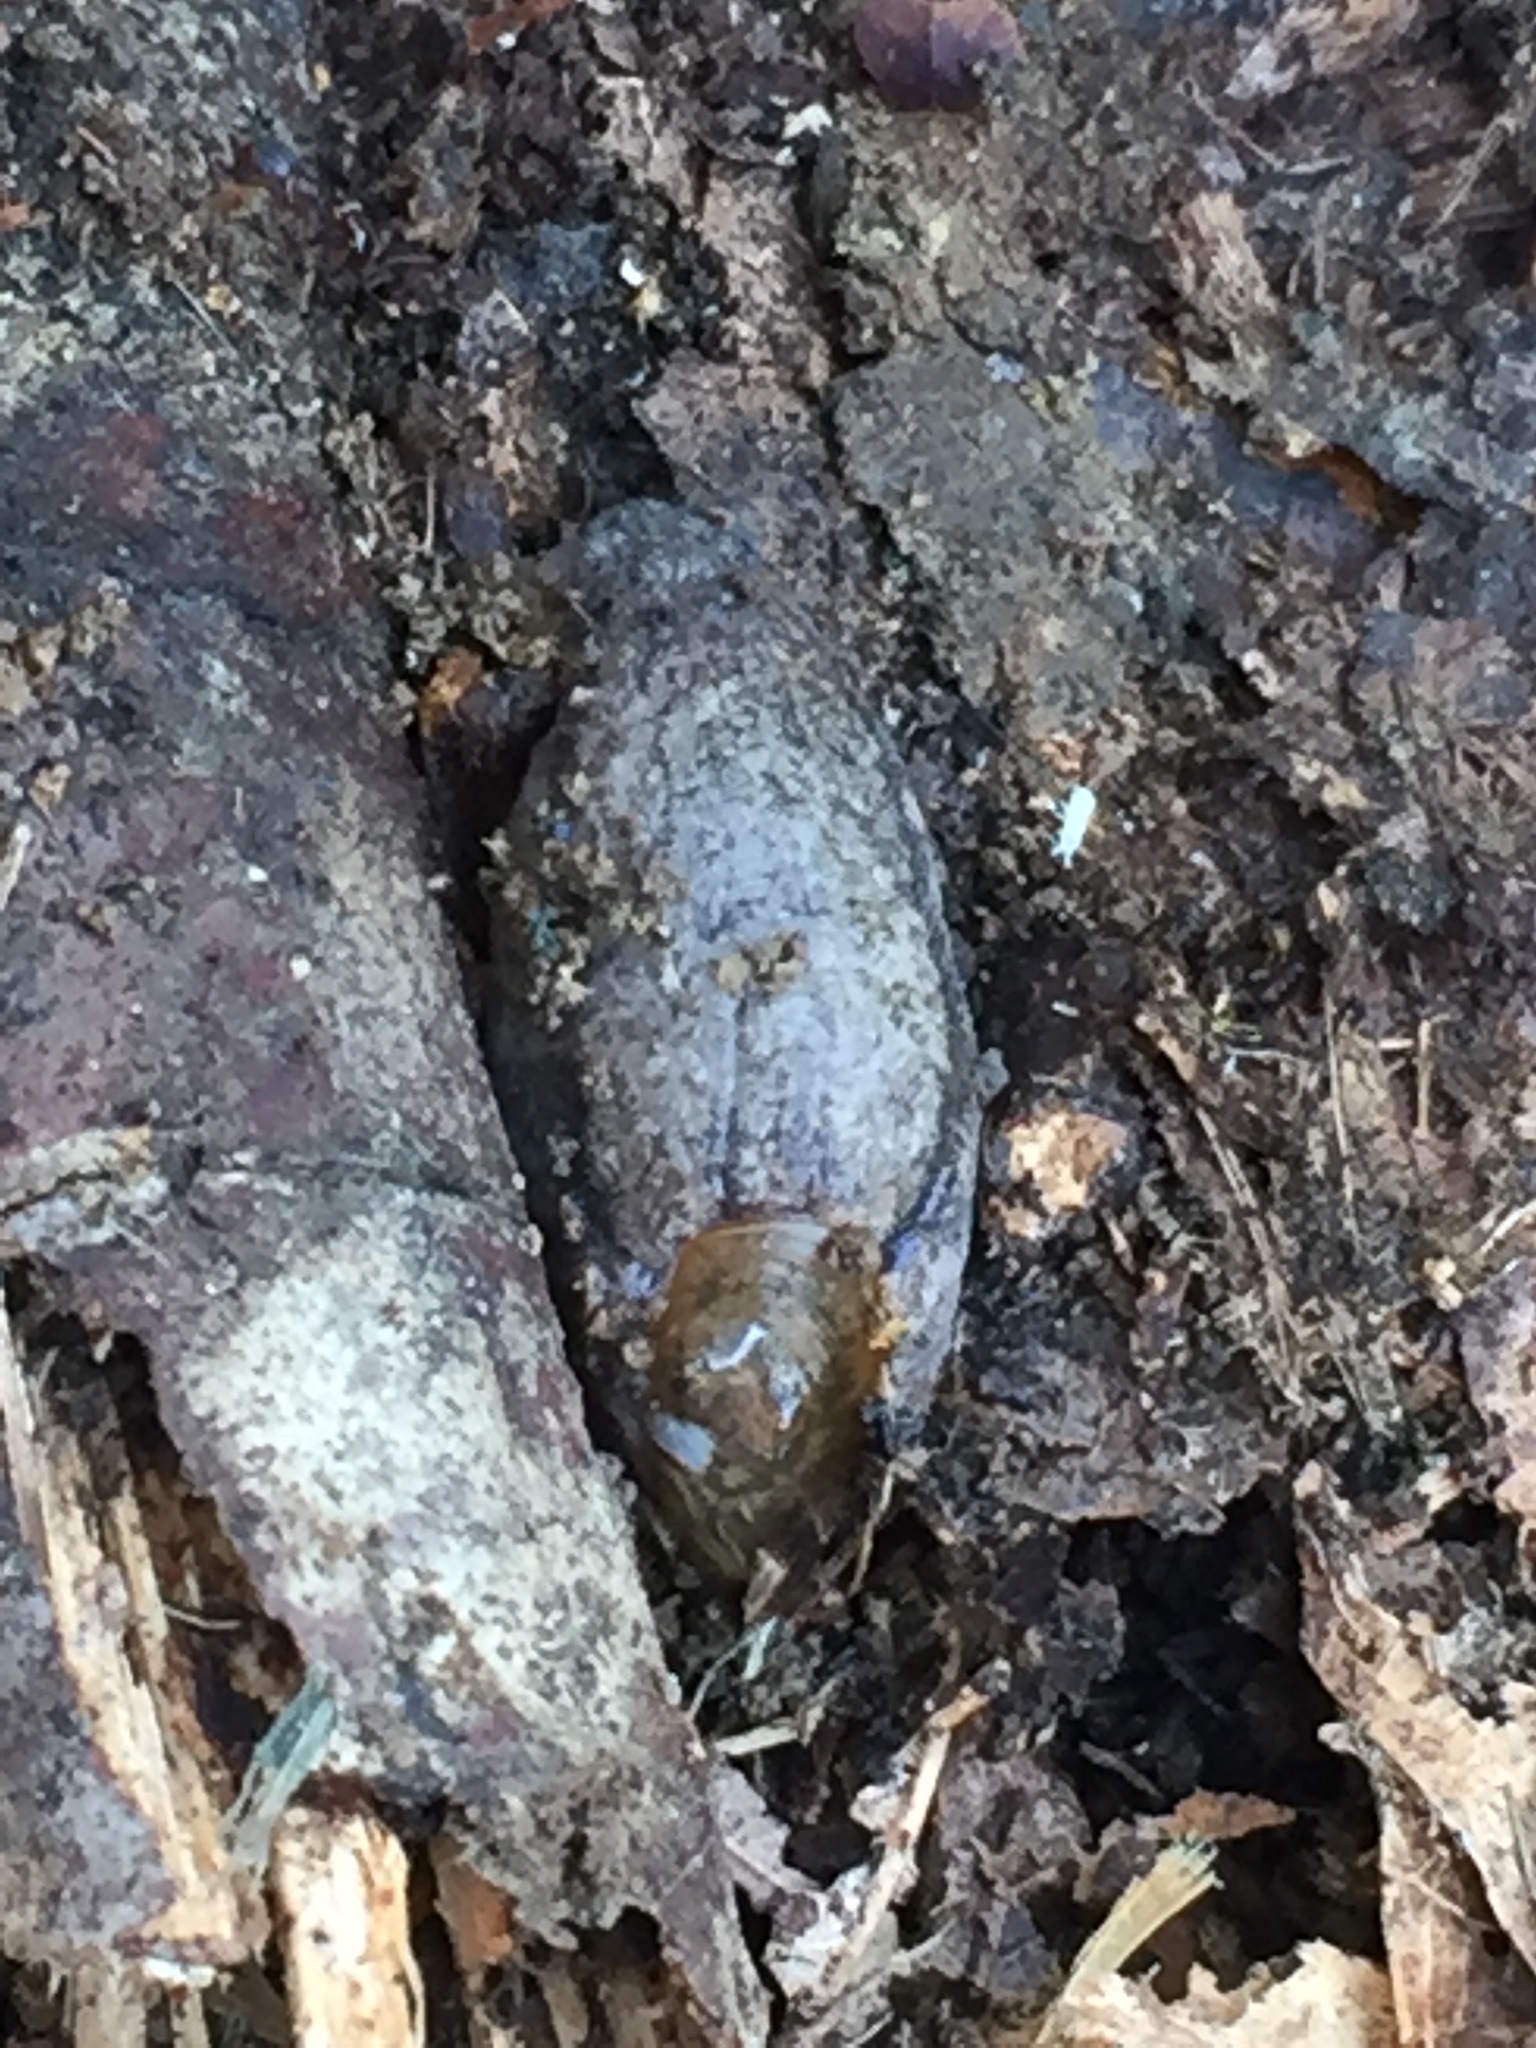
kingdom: Animalia
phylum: Mollusca
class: Gastropoda
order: Stylommatophora
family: Testacellidae
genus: Testacella
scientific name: Testacella maugei
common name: Mauge's slug
